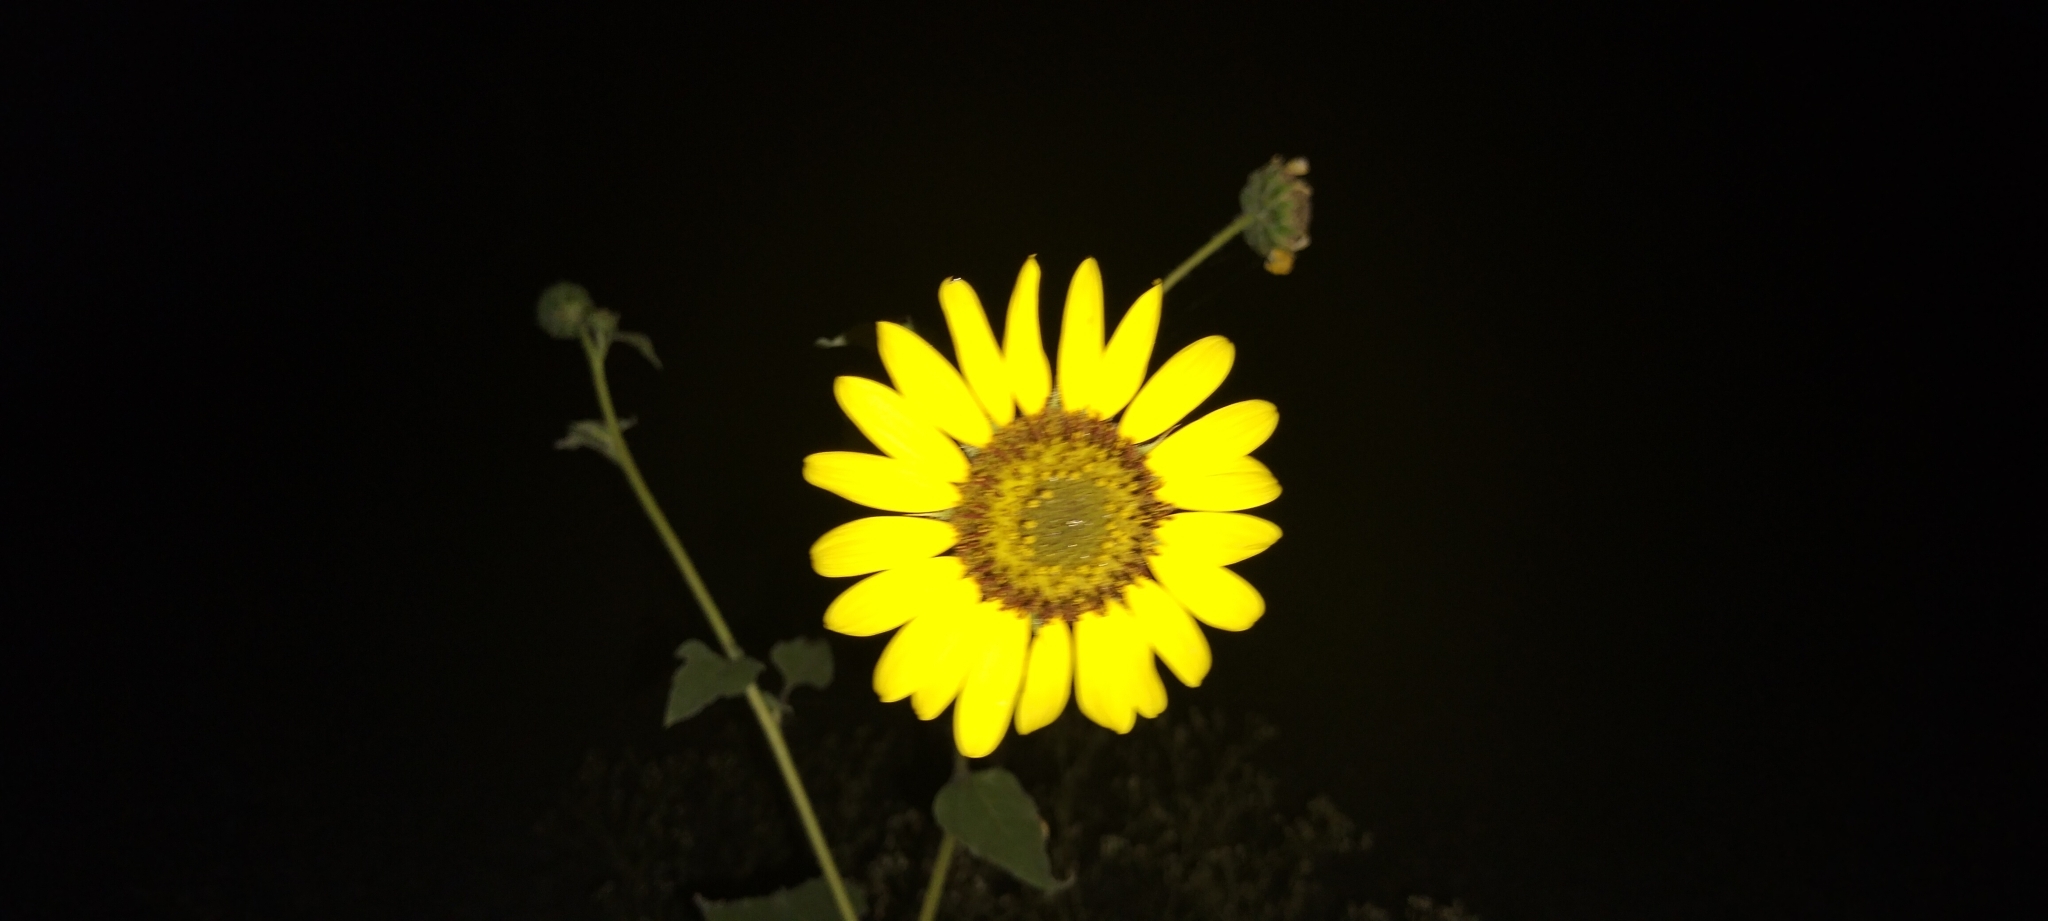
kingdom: Plantae
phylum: Tracheophyta
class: Magnoliopsida
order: Asterales
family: Asteraceae
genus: Helianthus
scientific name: Helianthus annuus
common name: Sunflower
